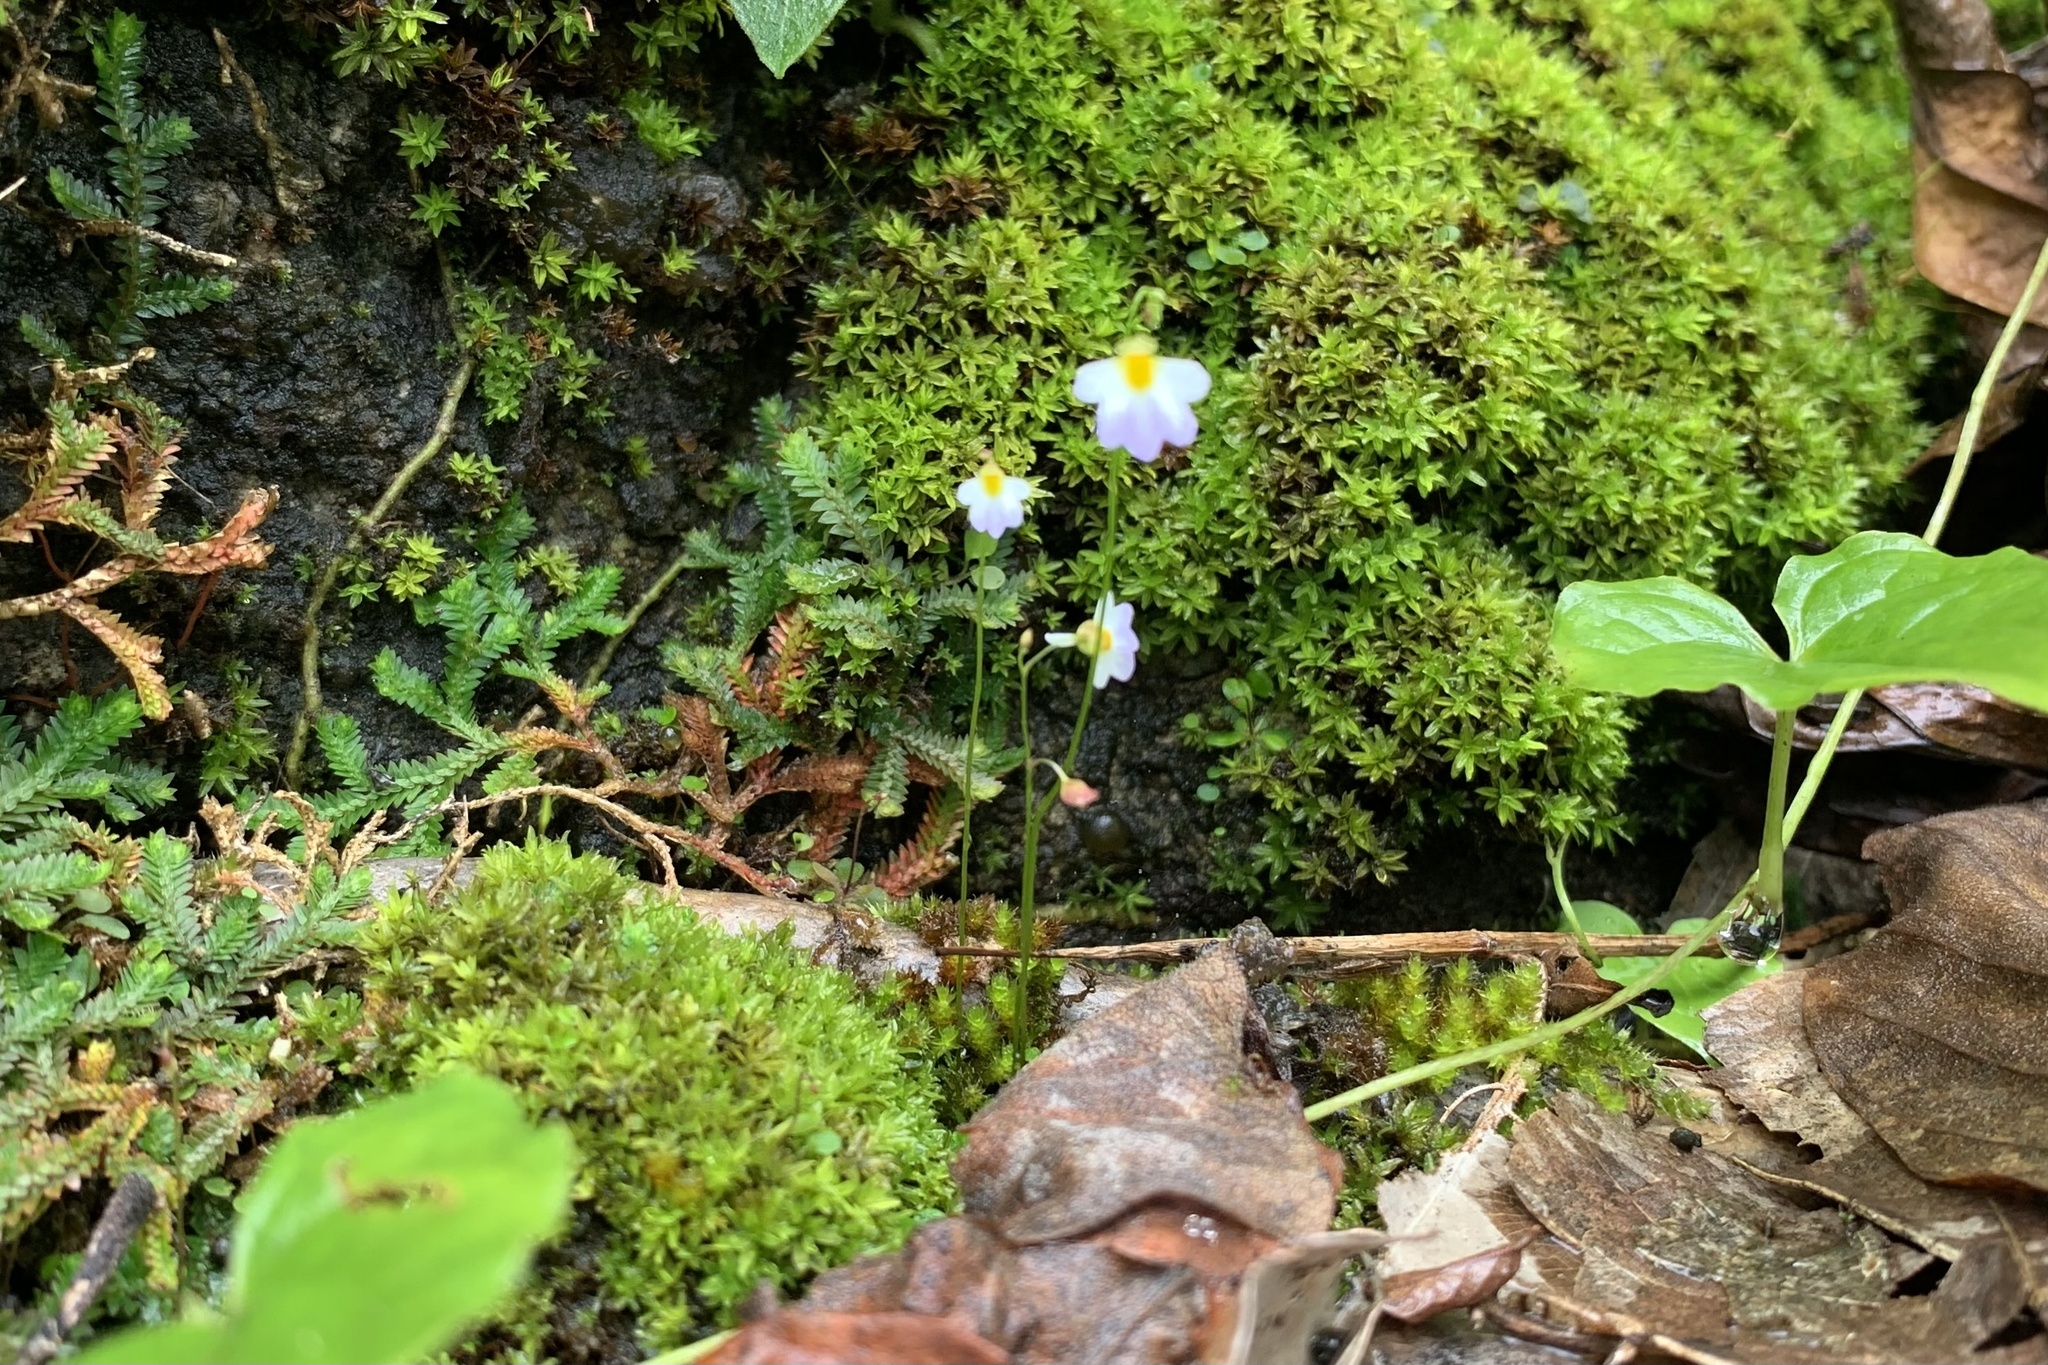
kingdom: Plantae
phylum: Tracheophyta
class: Magnoliopsida
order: Lamiales
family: Lentibulariaceae
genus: Utricularia
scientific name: Utricularia striatula
